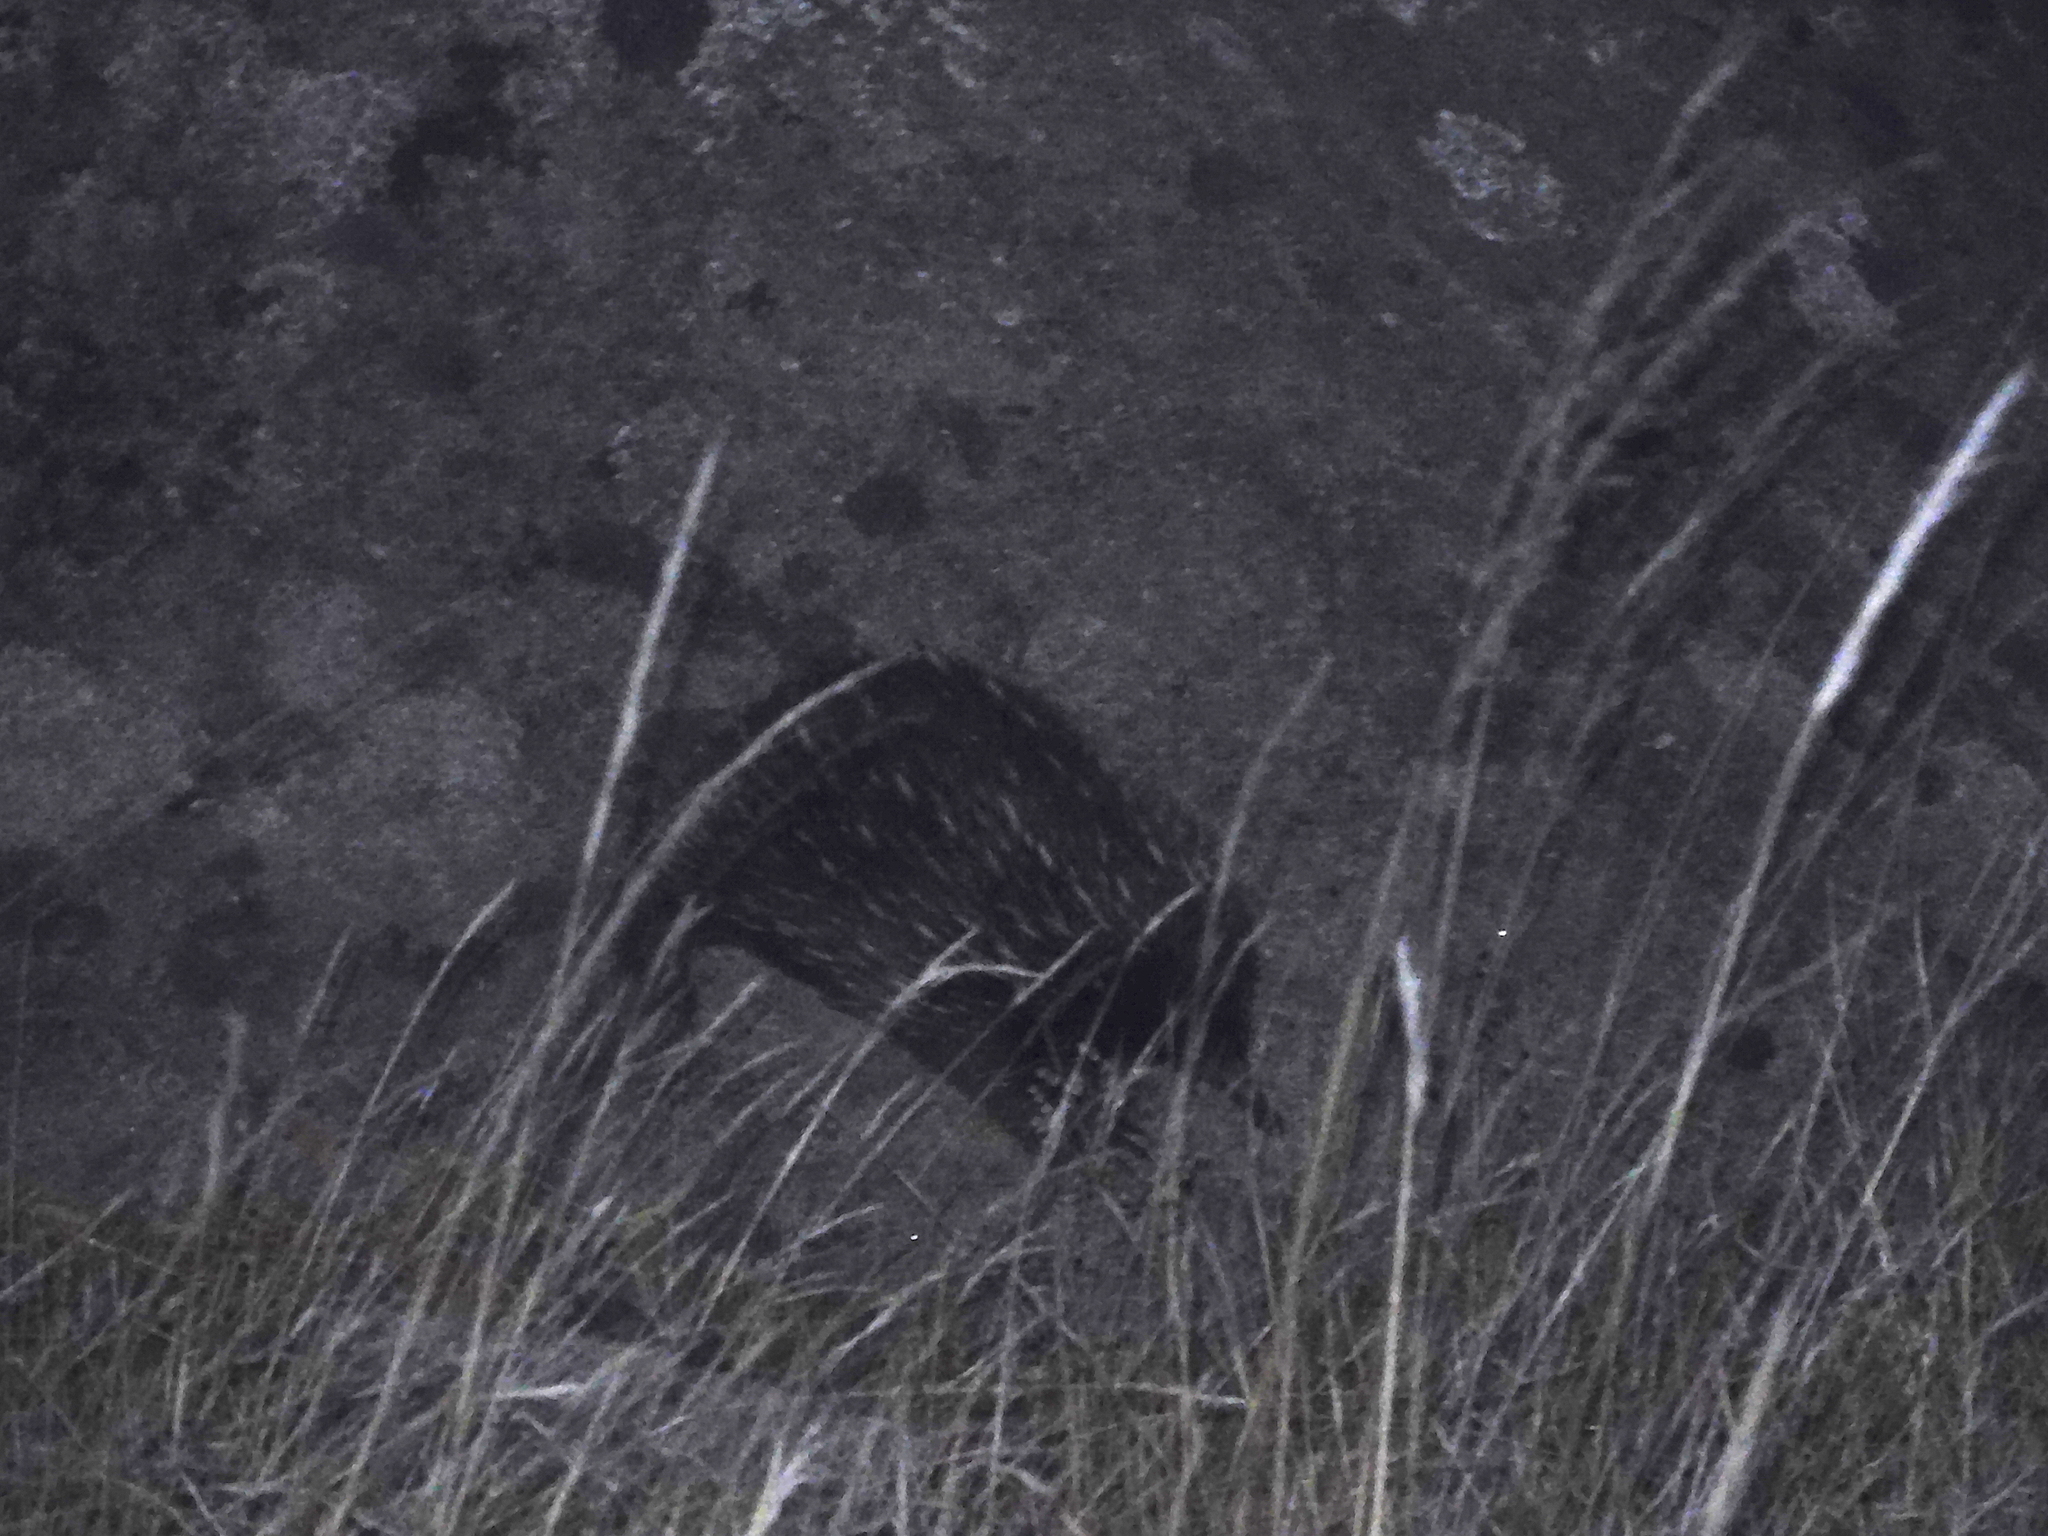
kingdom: Animalia
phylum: Chordata
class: Mammalia
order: Monotremata
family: Tachyglossidae
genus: Tachyglossus
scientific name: Tachyglossus aculeatus
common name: Short-beaked echidna
